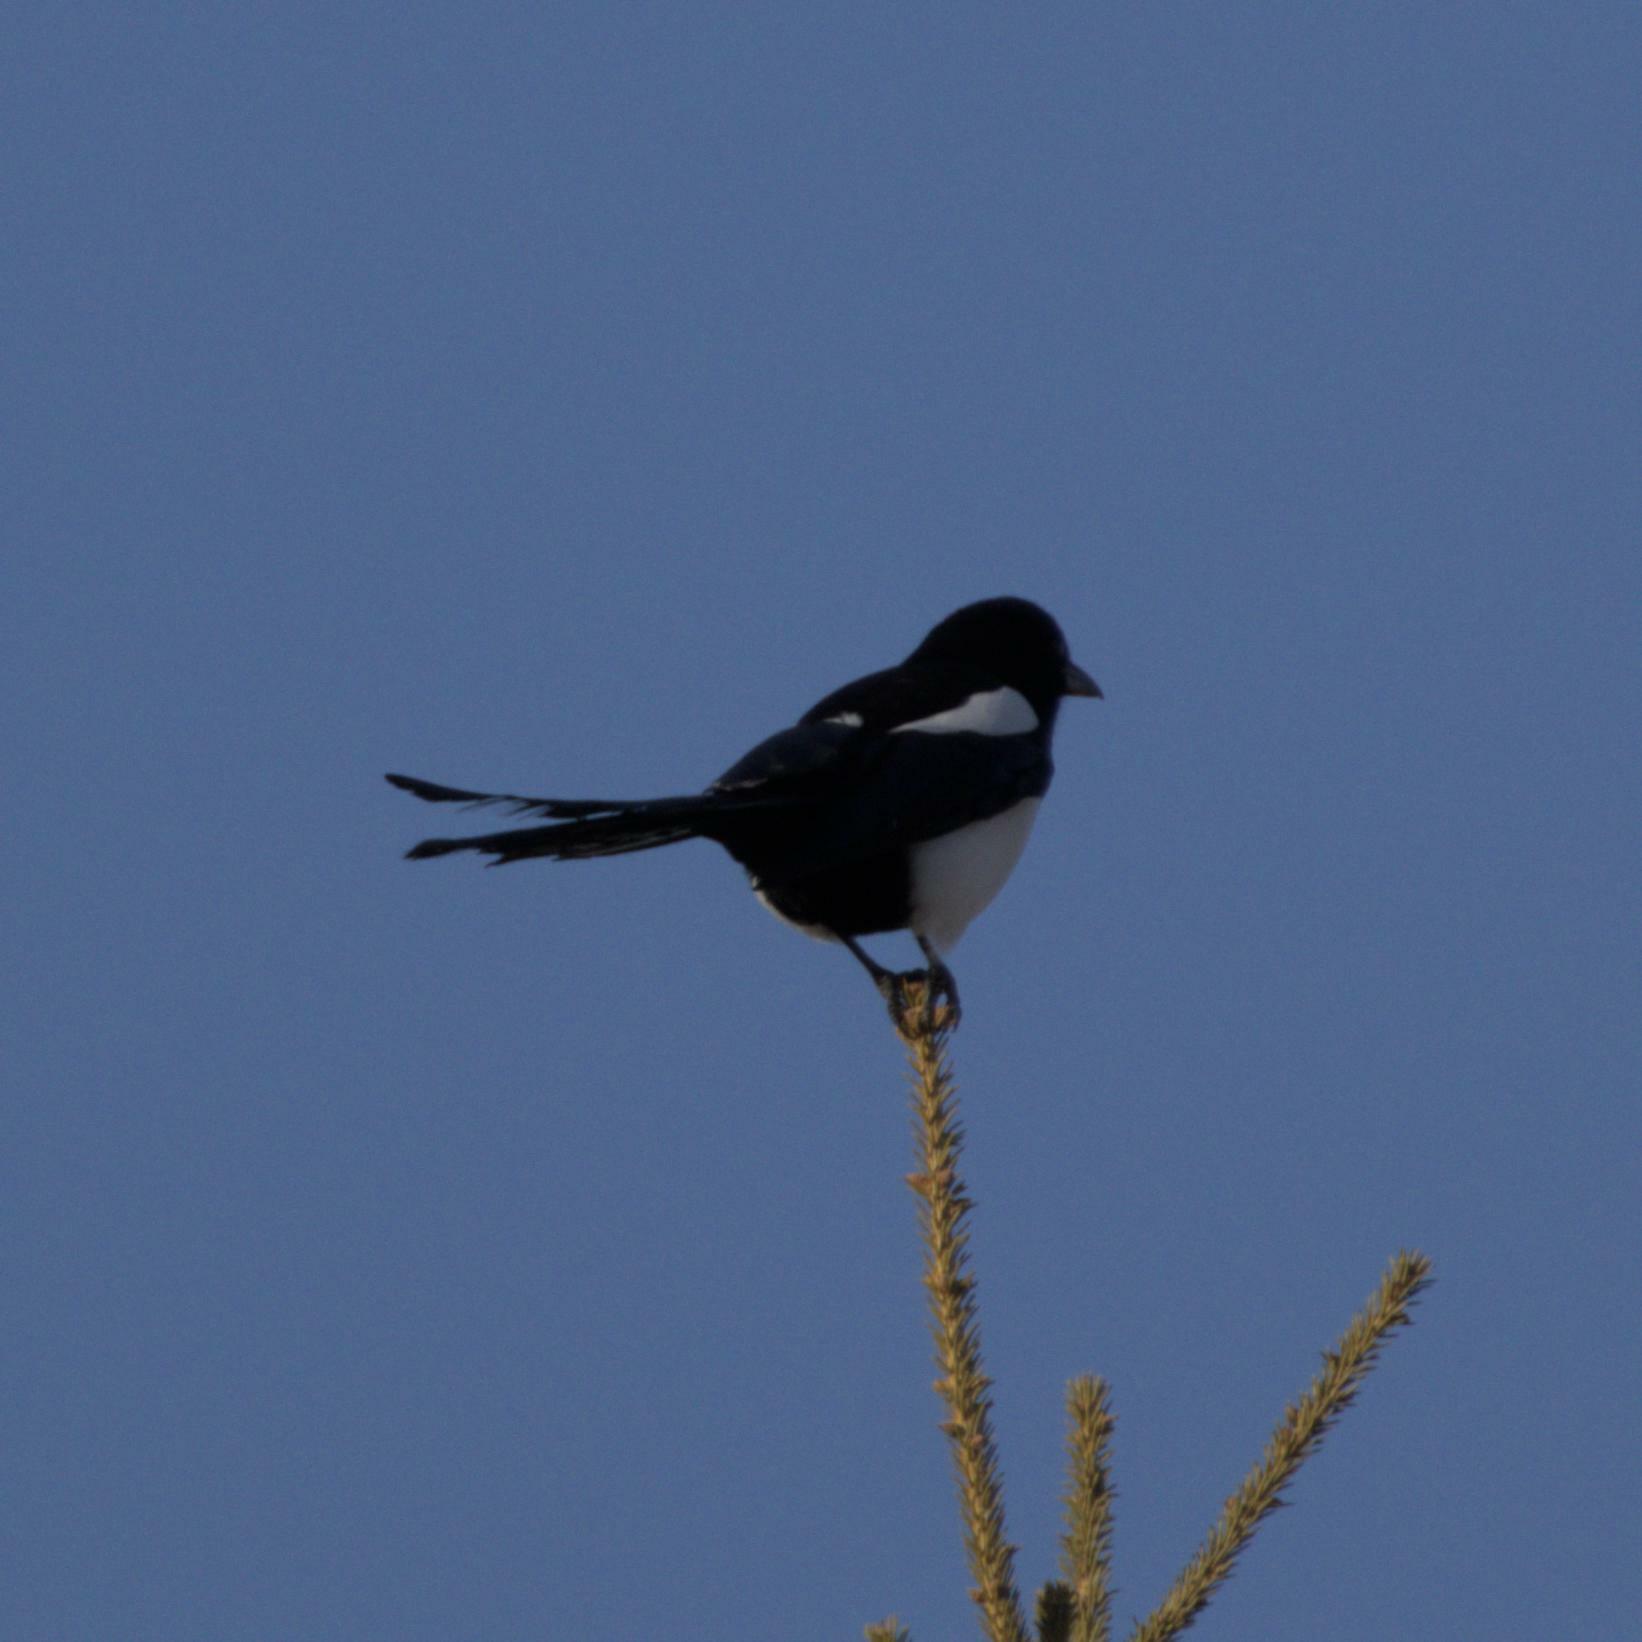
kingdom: Animalia
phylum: Chordata
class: Aves
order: Passeriformes
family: Corvidae
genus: Pica
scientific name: Pica hudsonia
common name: Black-billed magpie
